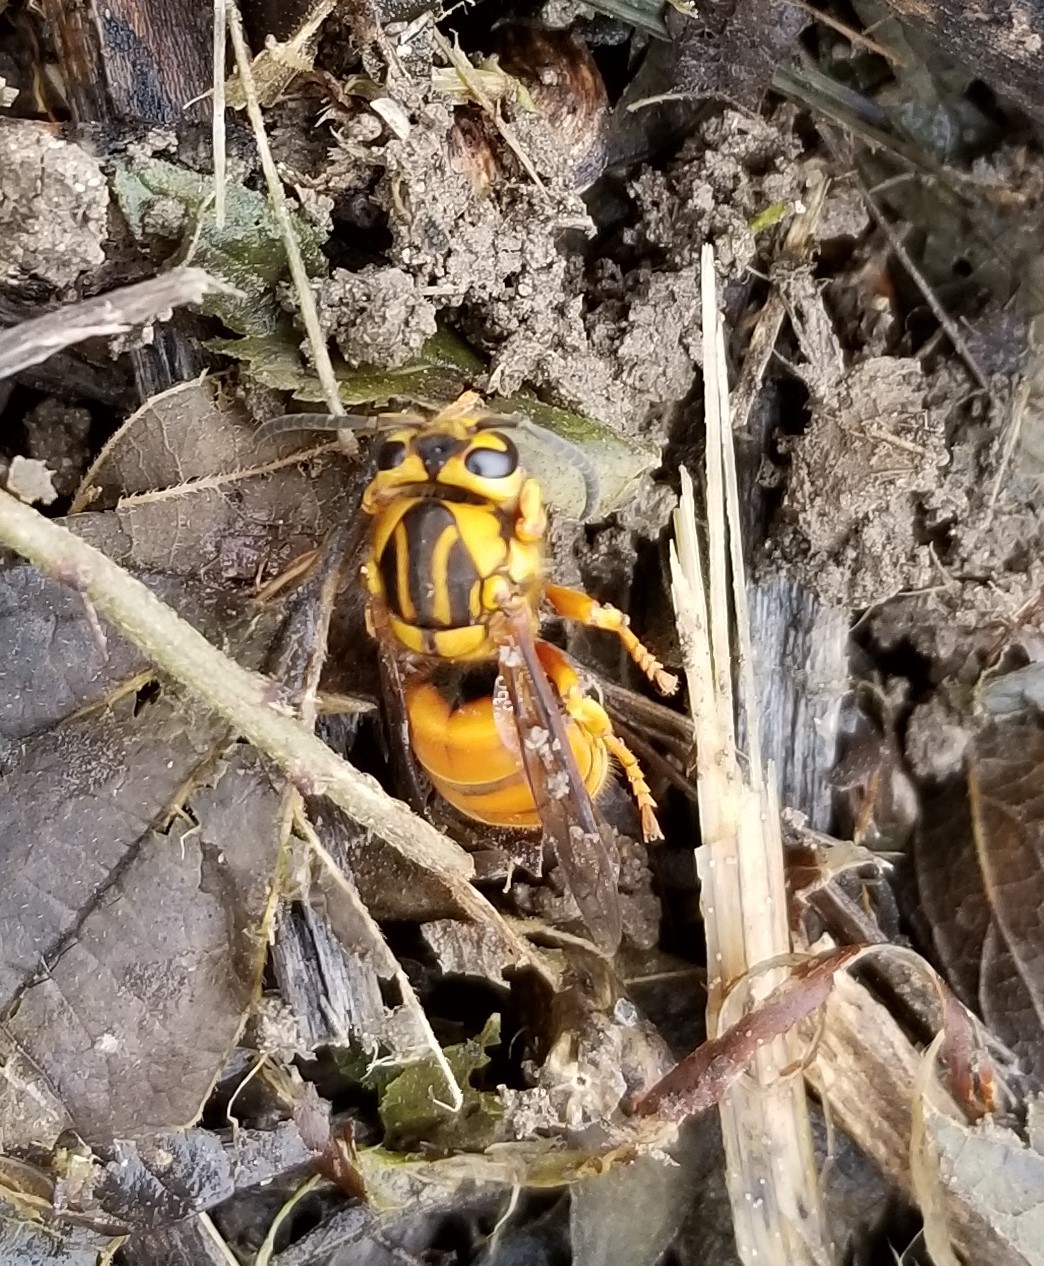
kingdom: Animalia
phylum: Arthropoda
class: Insecta
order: Hymenoptera
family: Vespidae
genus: Vespula
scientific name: Vespula squamosa
